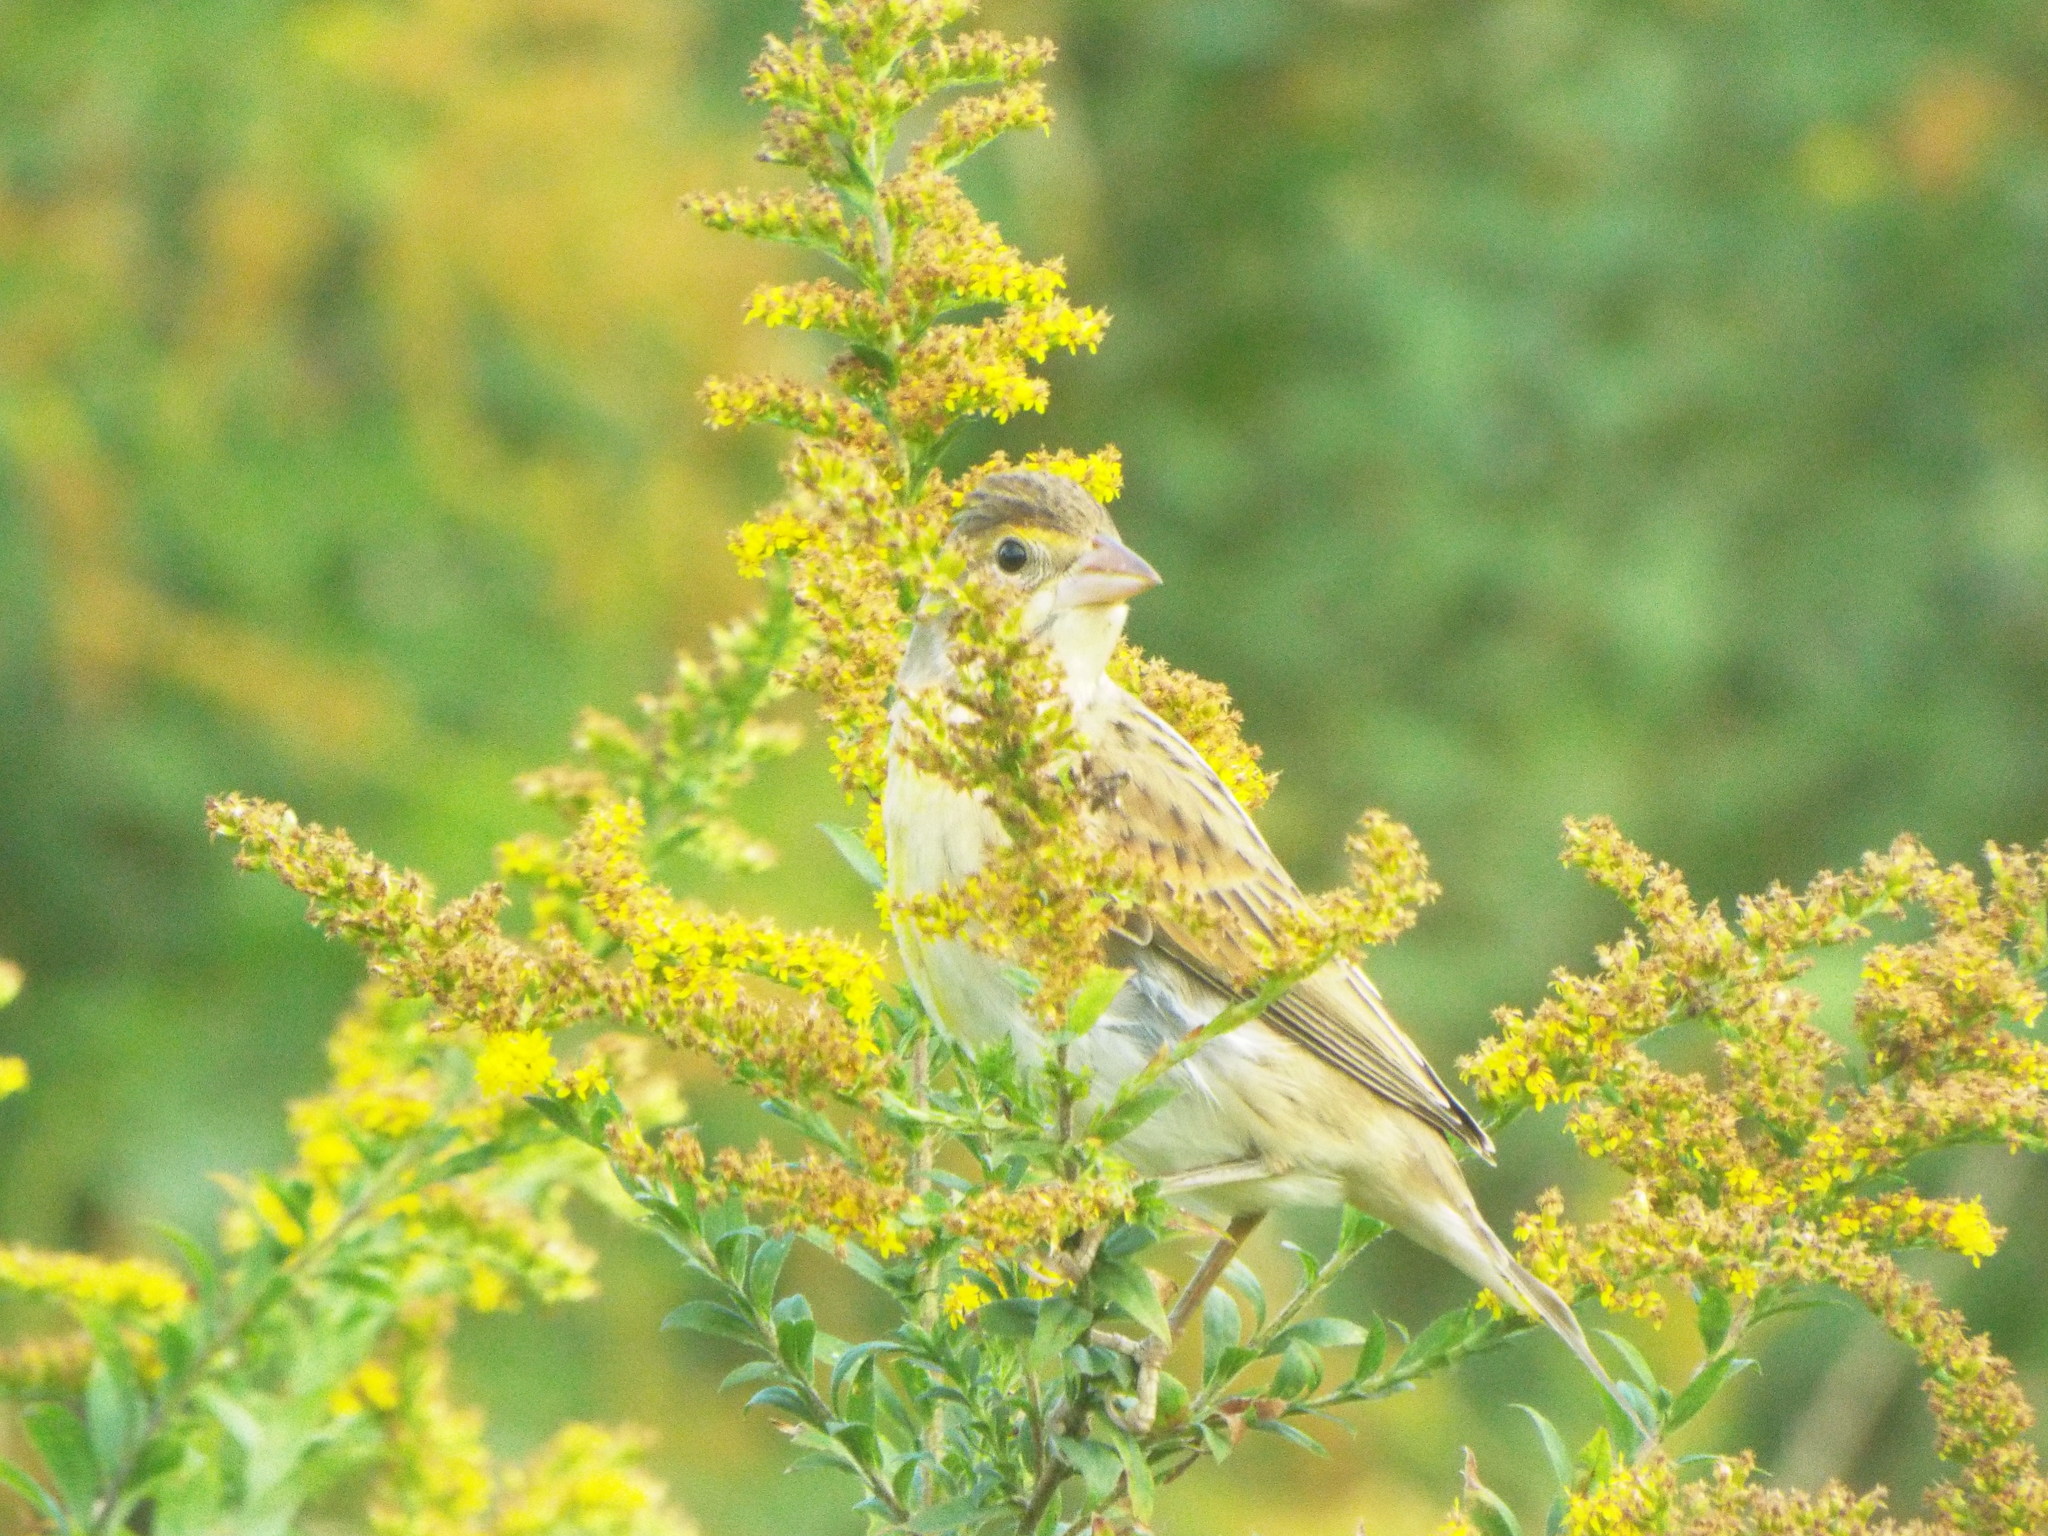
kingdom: Animalia
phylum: Chordata
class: Aves
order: Passeriformes
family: Cardinalidae
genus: Spiza
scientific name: Spiza americana
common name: Dickcissel
